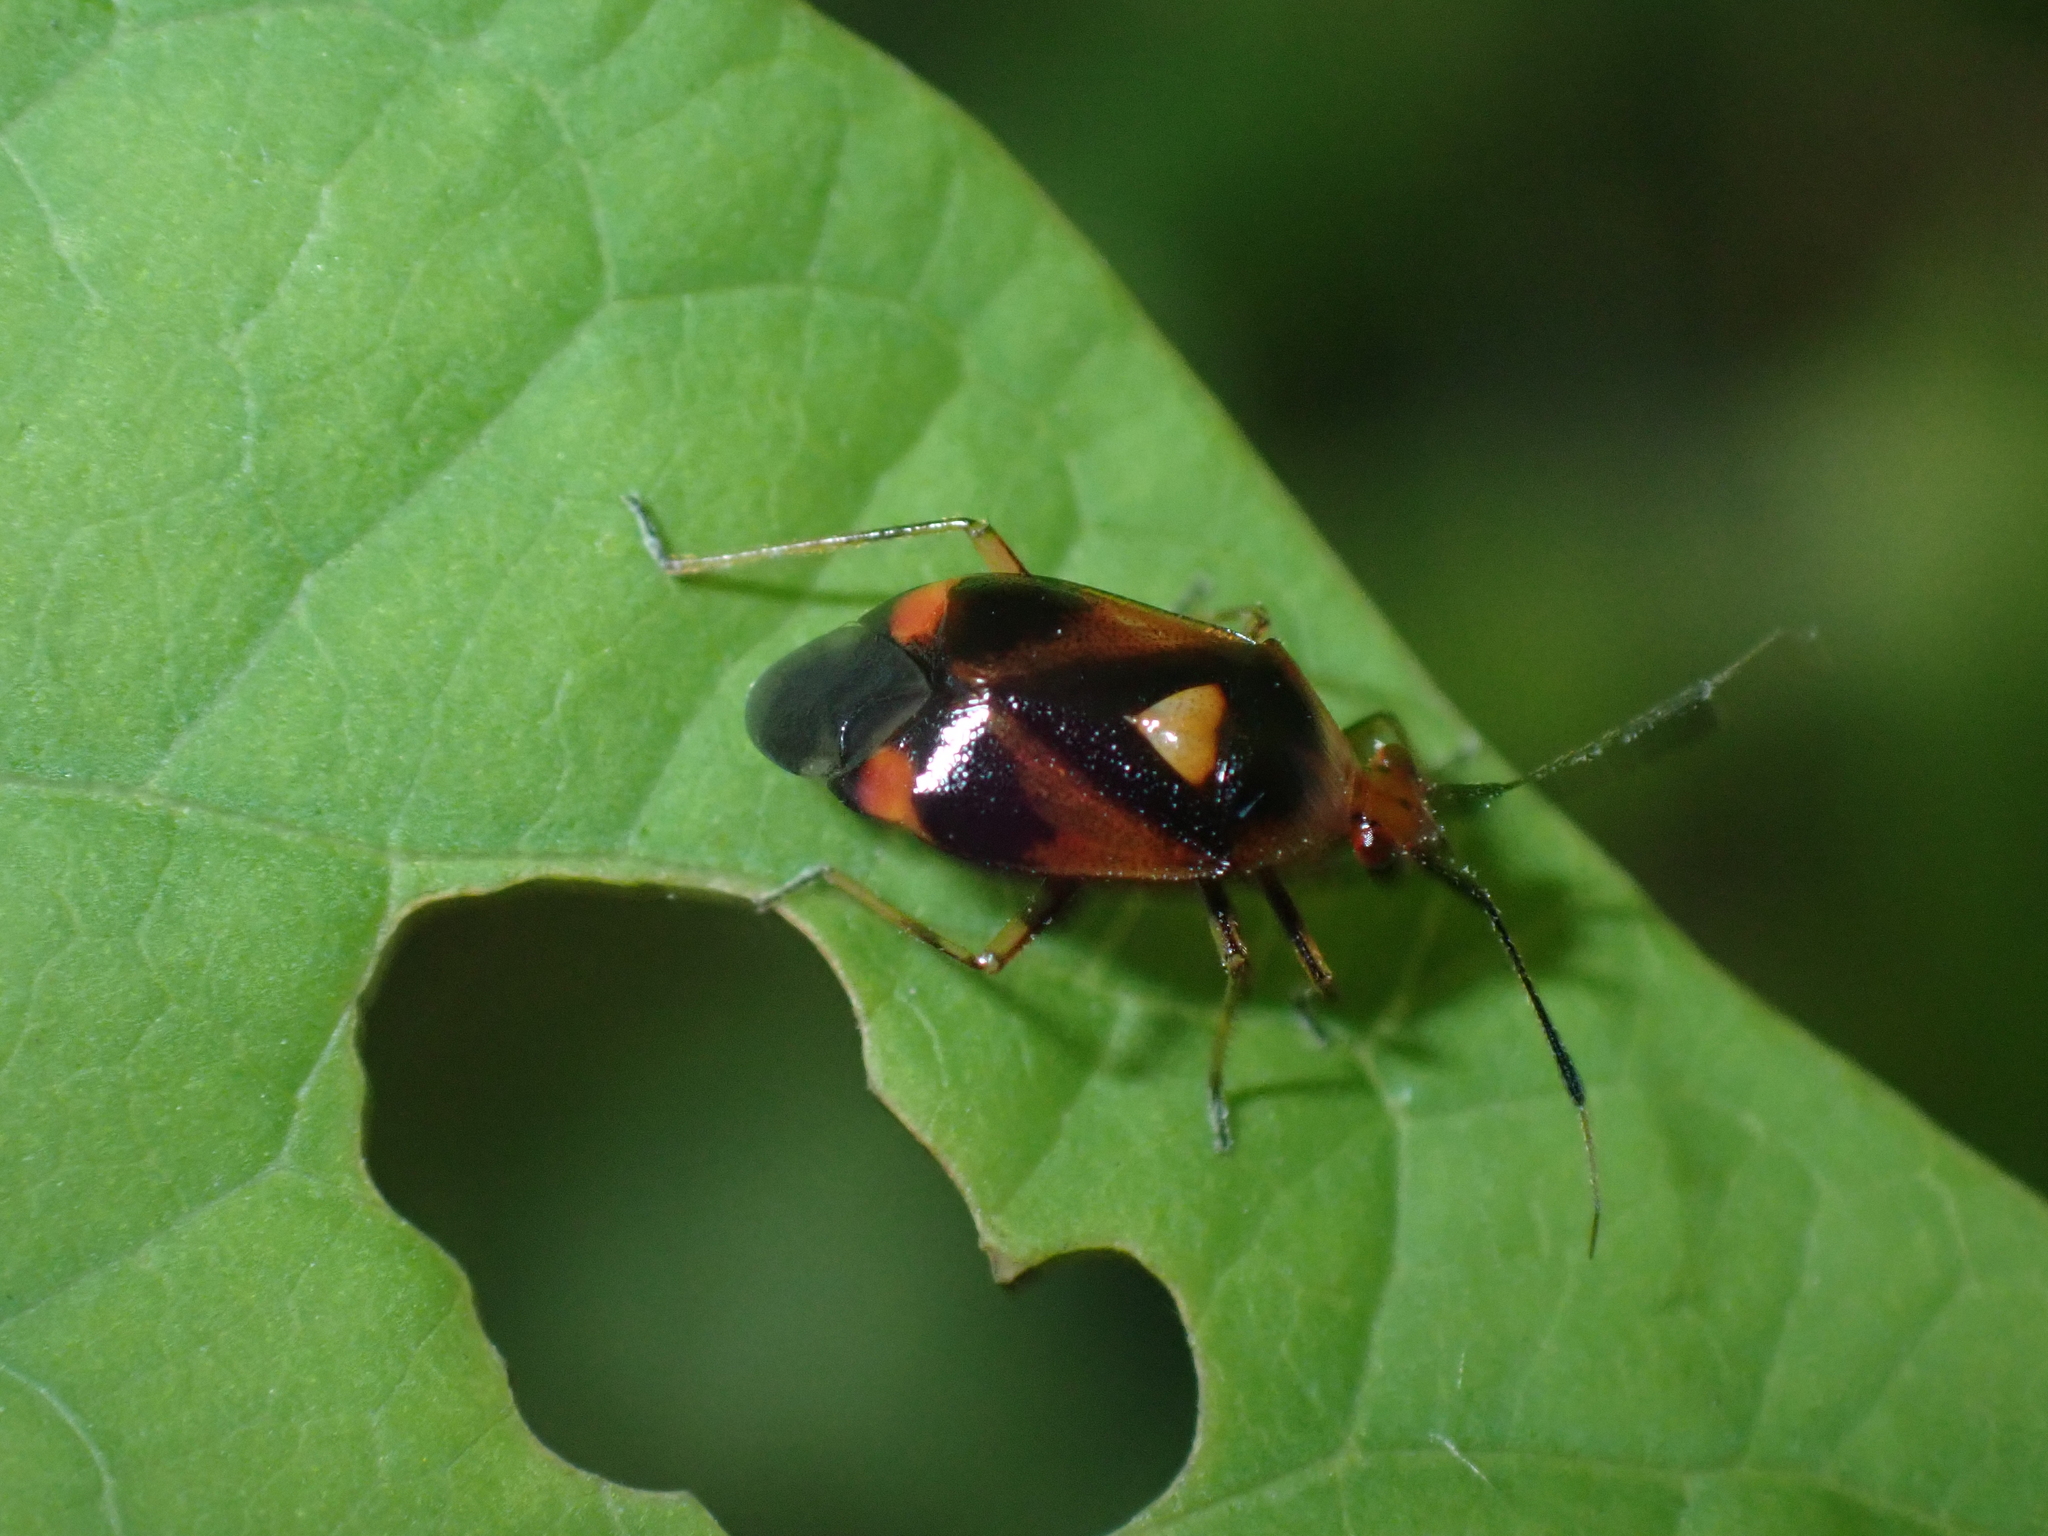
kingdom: Animalia
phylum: Arthropoda
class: Insecta
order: Hemiptera
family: Miridae
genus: Deraeocoris
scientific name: Deraeocoris ruber
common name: Plant bug
